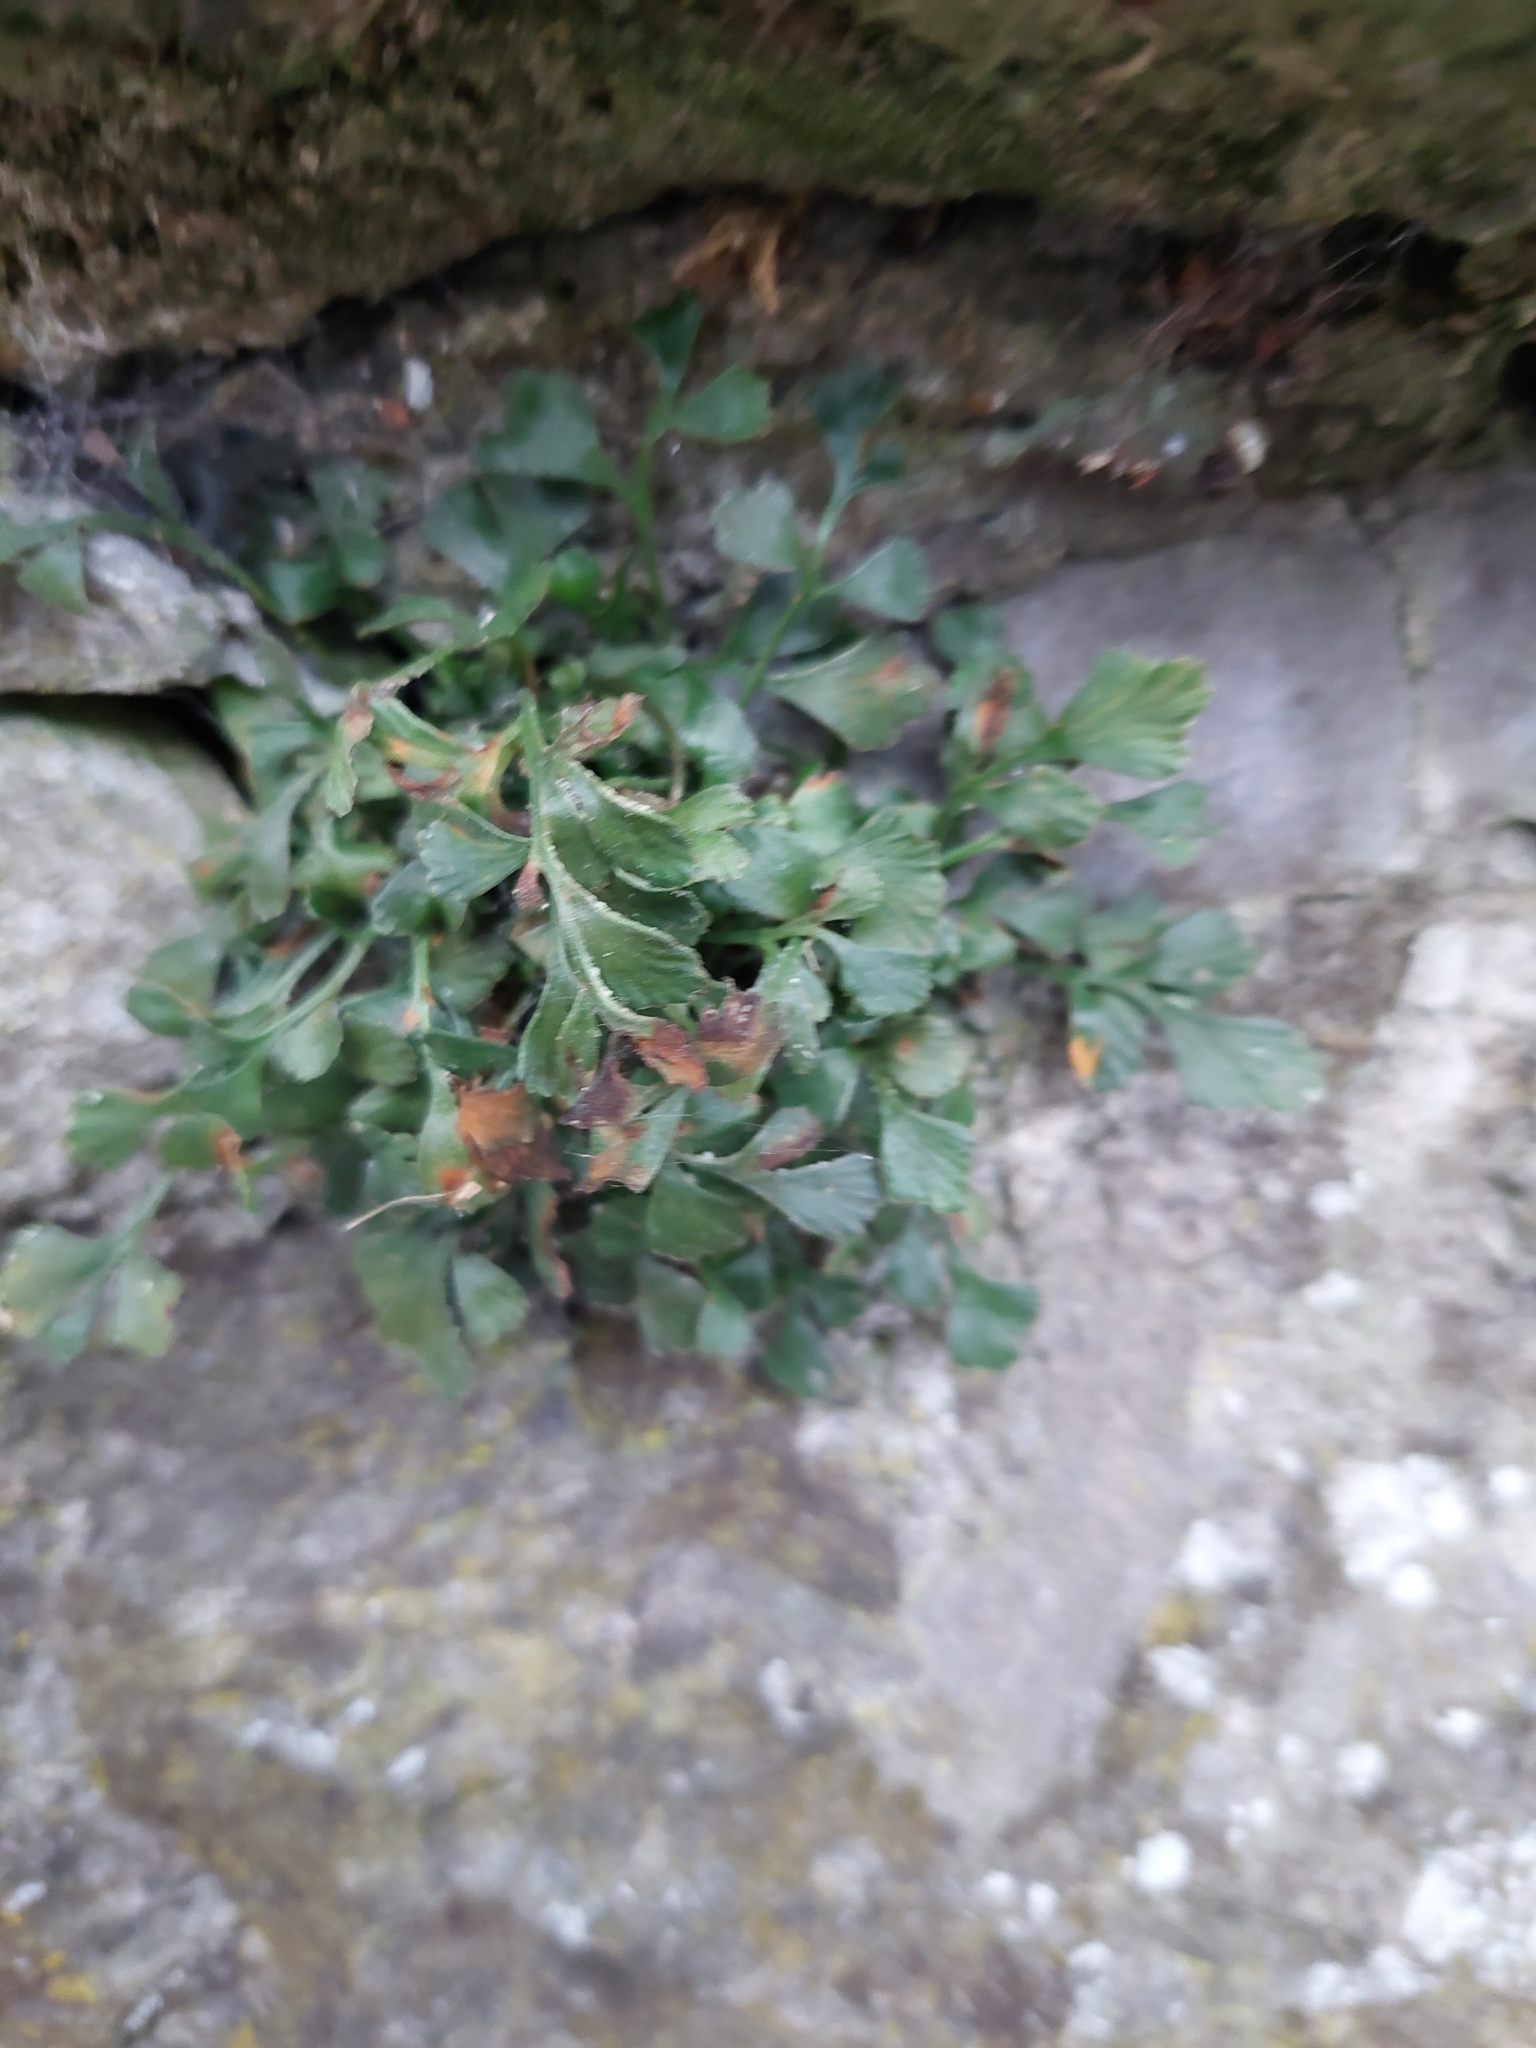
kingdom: Plantae
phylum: Tracheophyta
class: Polypodiopsida
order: Polypodiales
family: Aspleniaceae
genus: Asplenium
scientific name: Asplenium ruta-muraria
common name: Wall-rue
